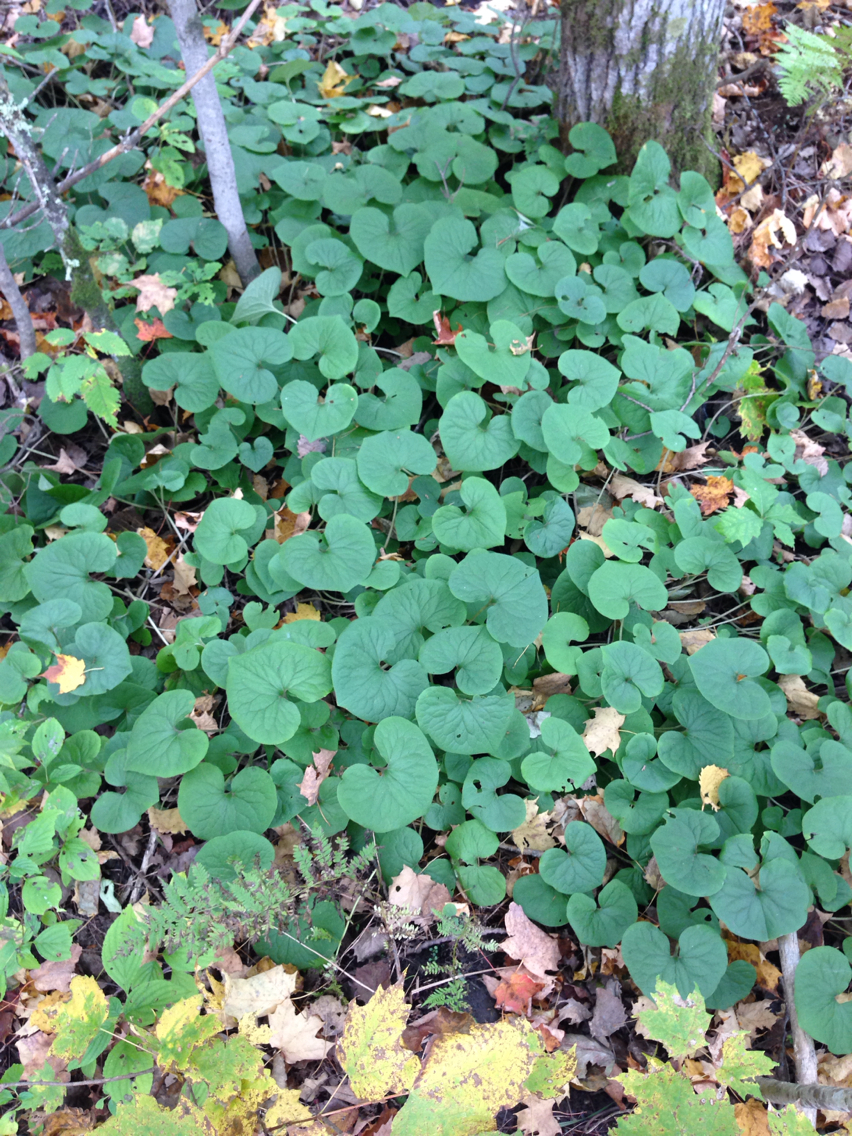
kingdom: Plantae
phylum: Tracheophyta
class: Magnoliopsida
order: Piperales
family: Aristolochiaceae
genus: Asarum
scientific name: Asarum canadense
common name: Wild ginger
